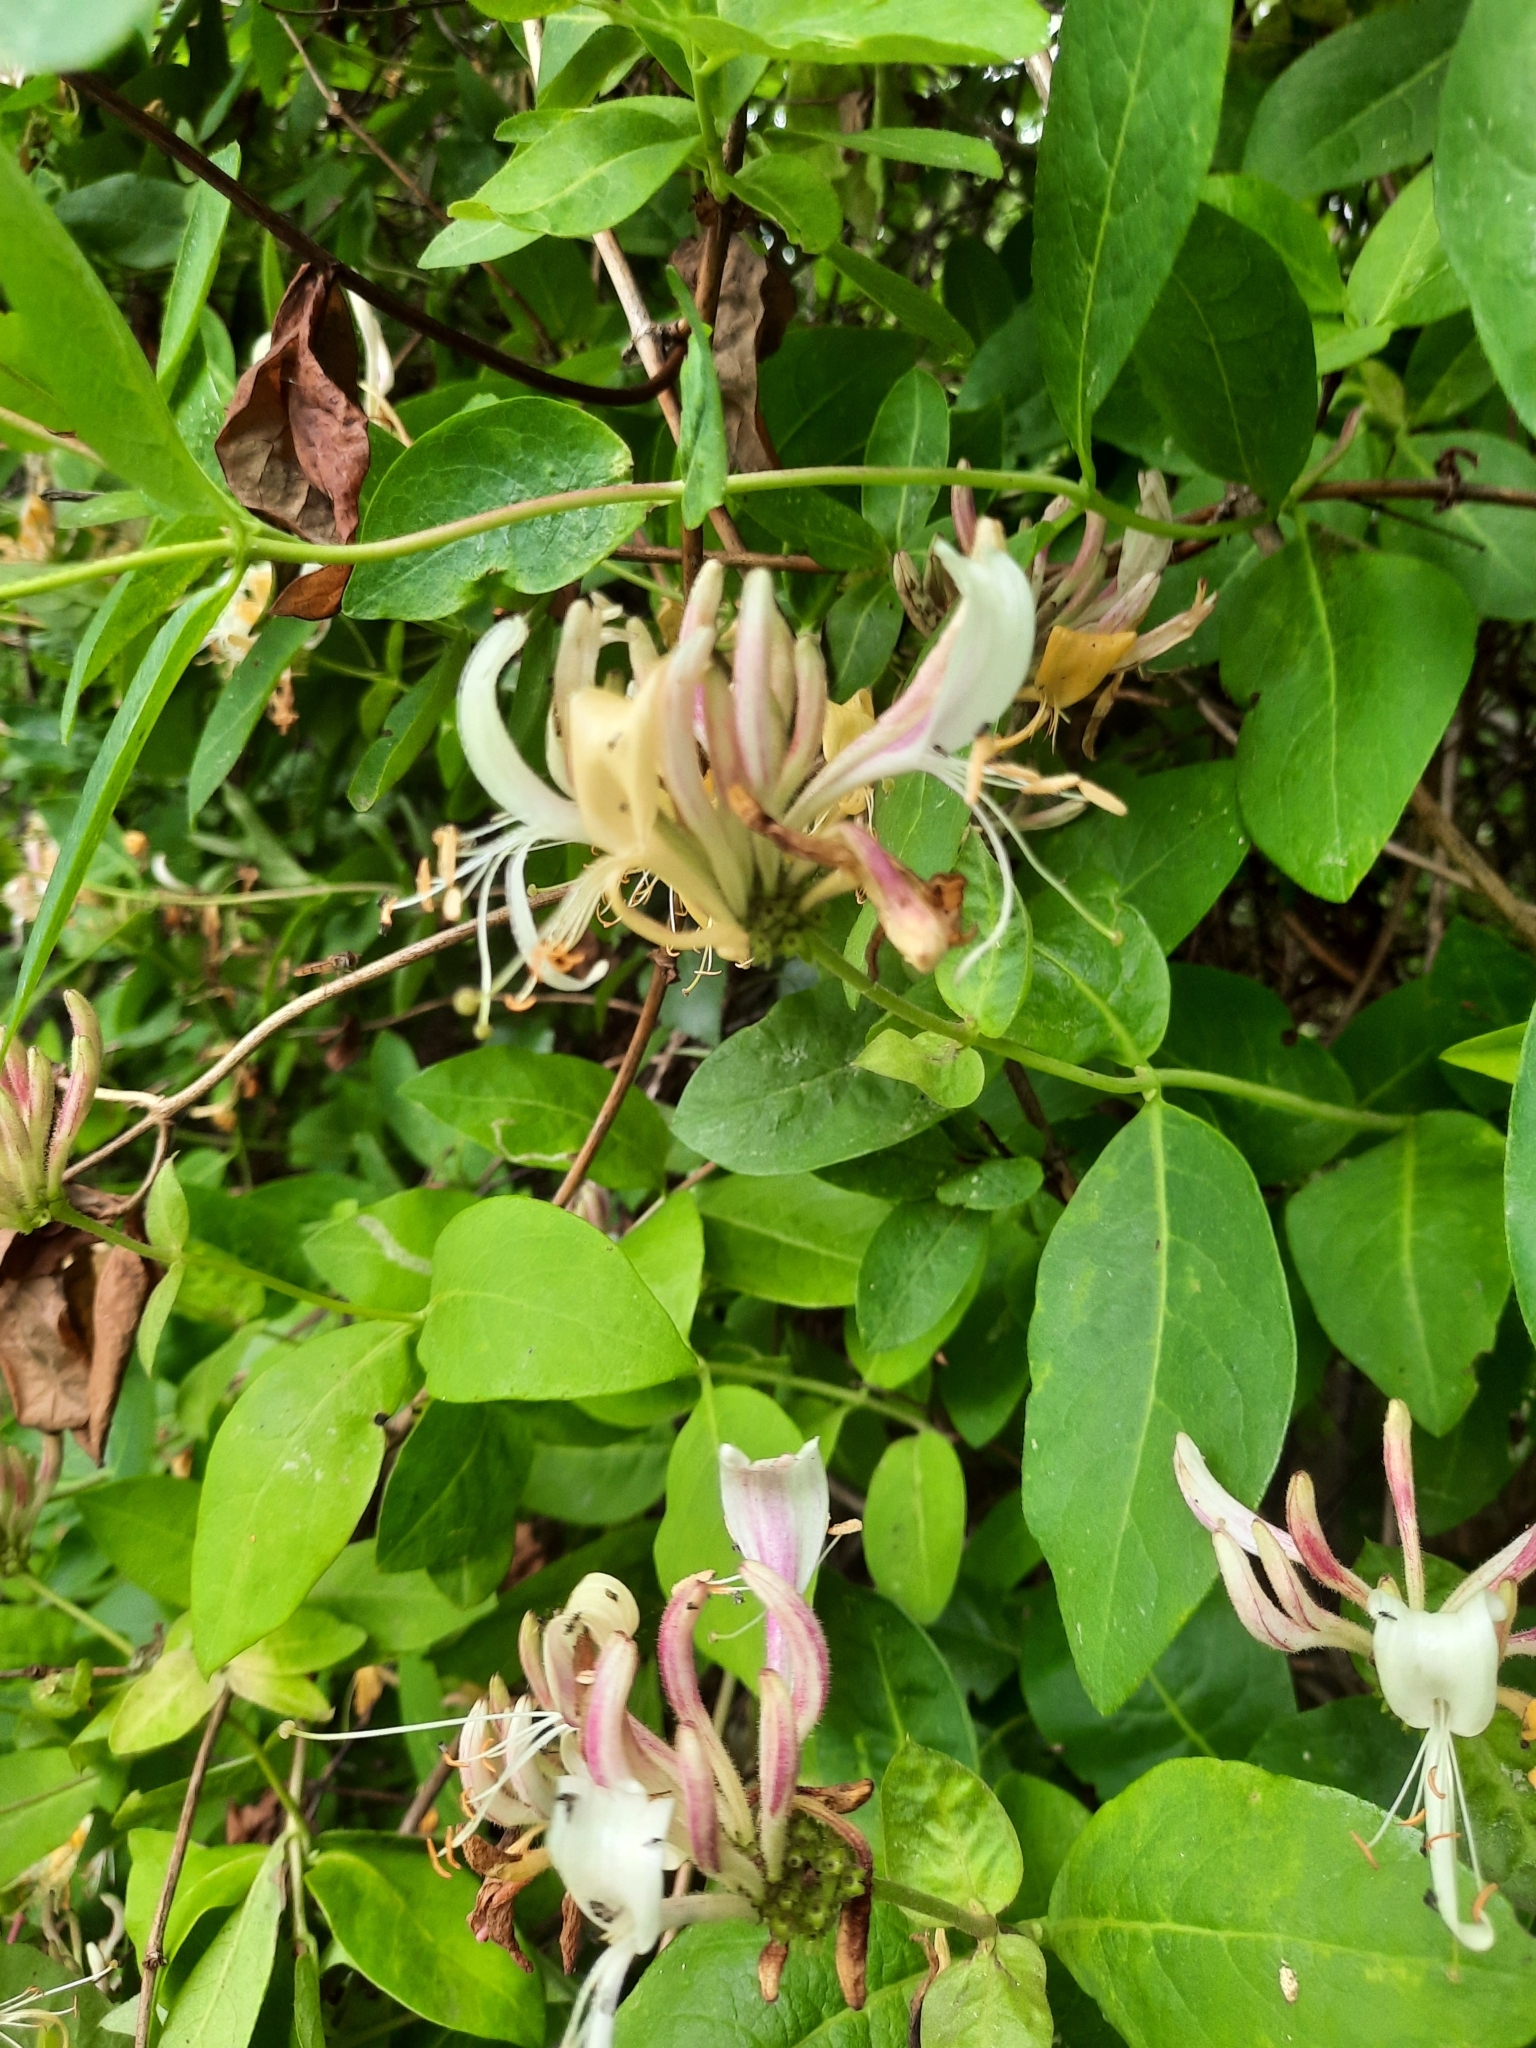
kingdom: Plantae
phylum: Tracheophyta
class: Magnoliopsida
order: Dipsacales
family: Caprifoliaceae
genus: Lonicera
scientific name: Lonicera periclymenum
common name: European honeysuckle
